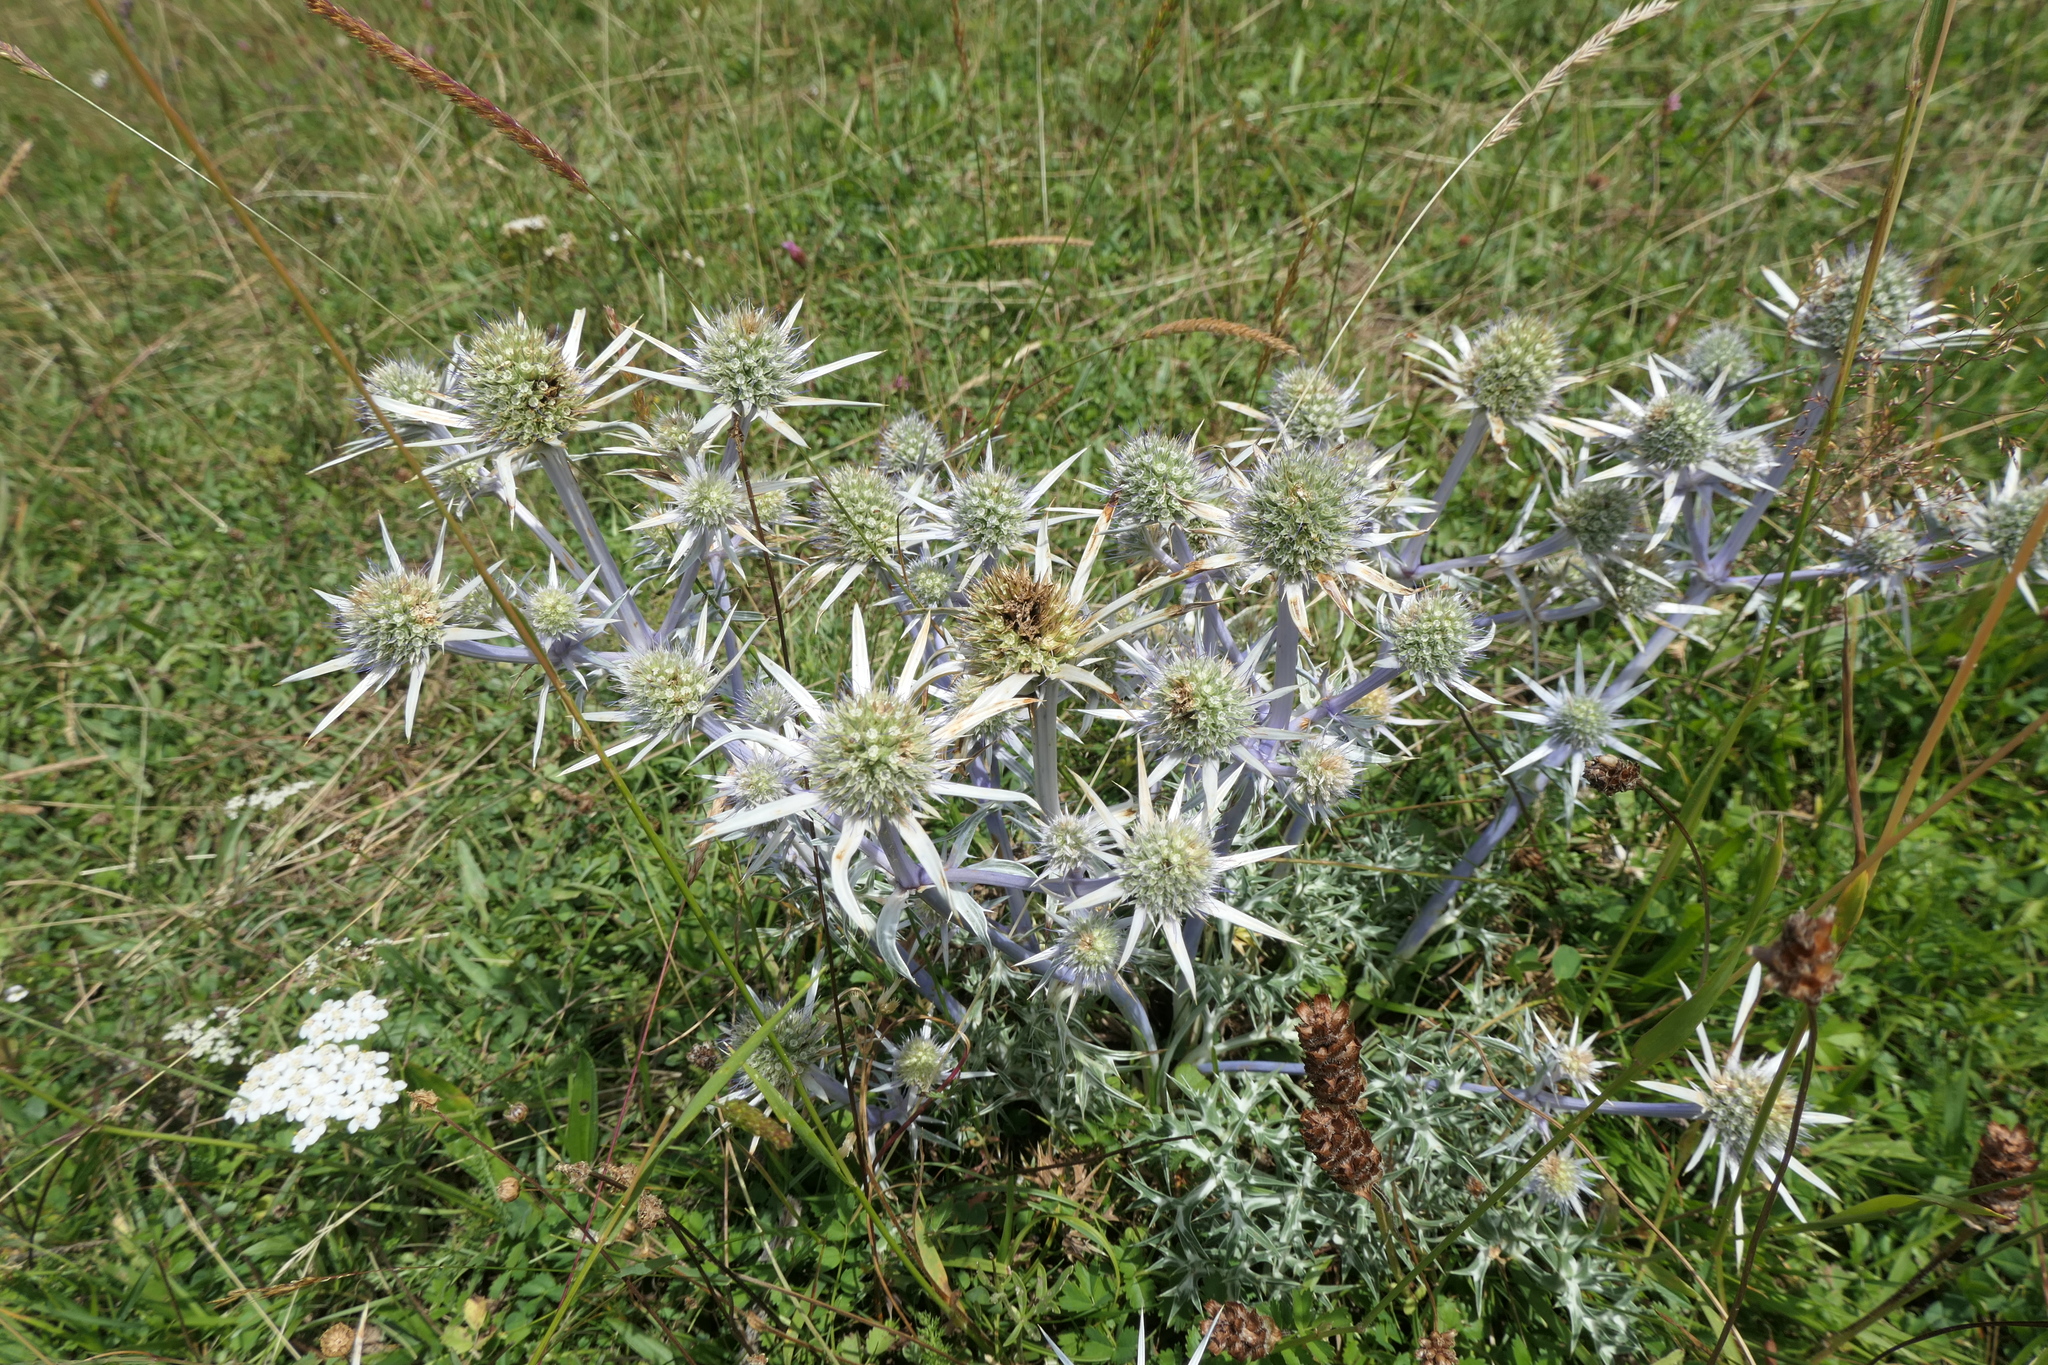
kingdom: Plantae
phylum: Tracheophyta
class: Magnoliopsida
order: Apiales
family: Apiaceae
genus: Eryngium
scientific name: Eryngium bourgatii
